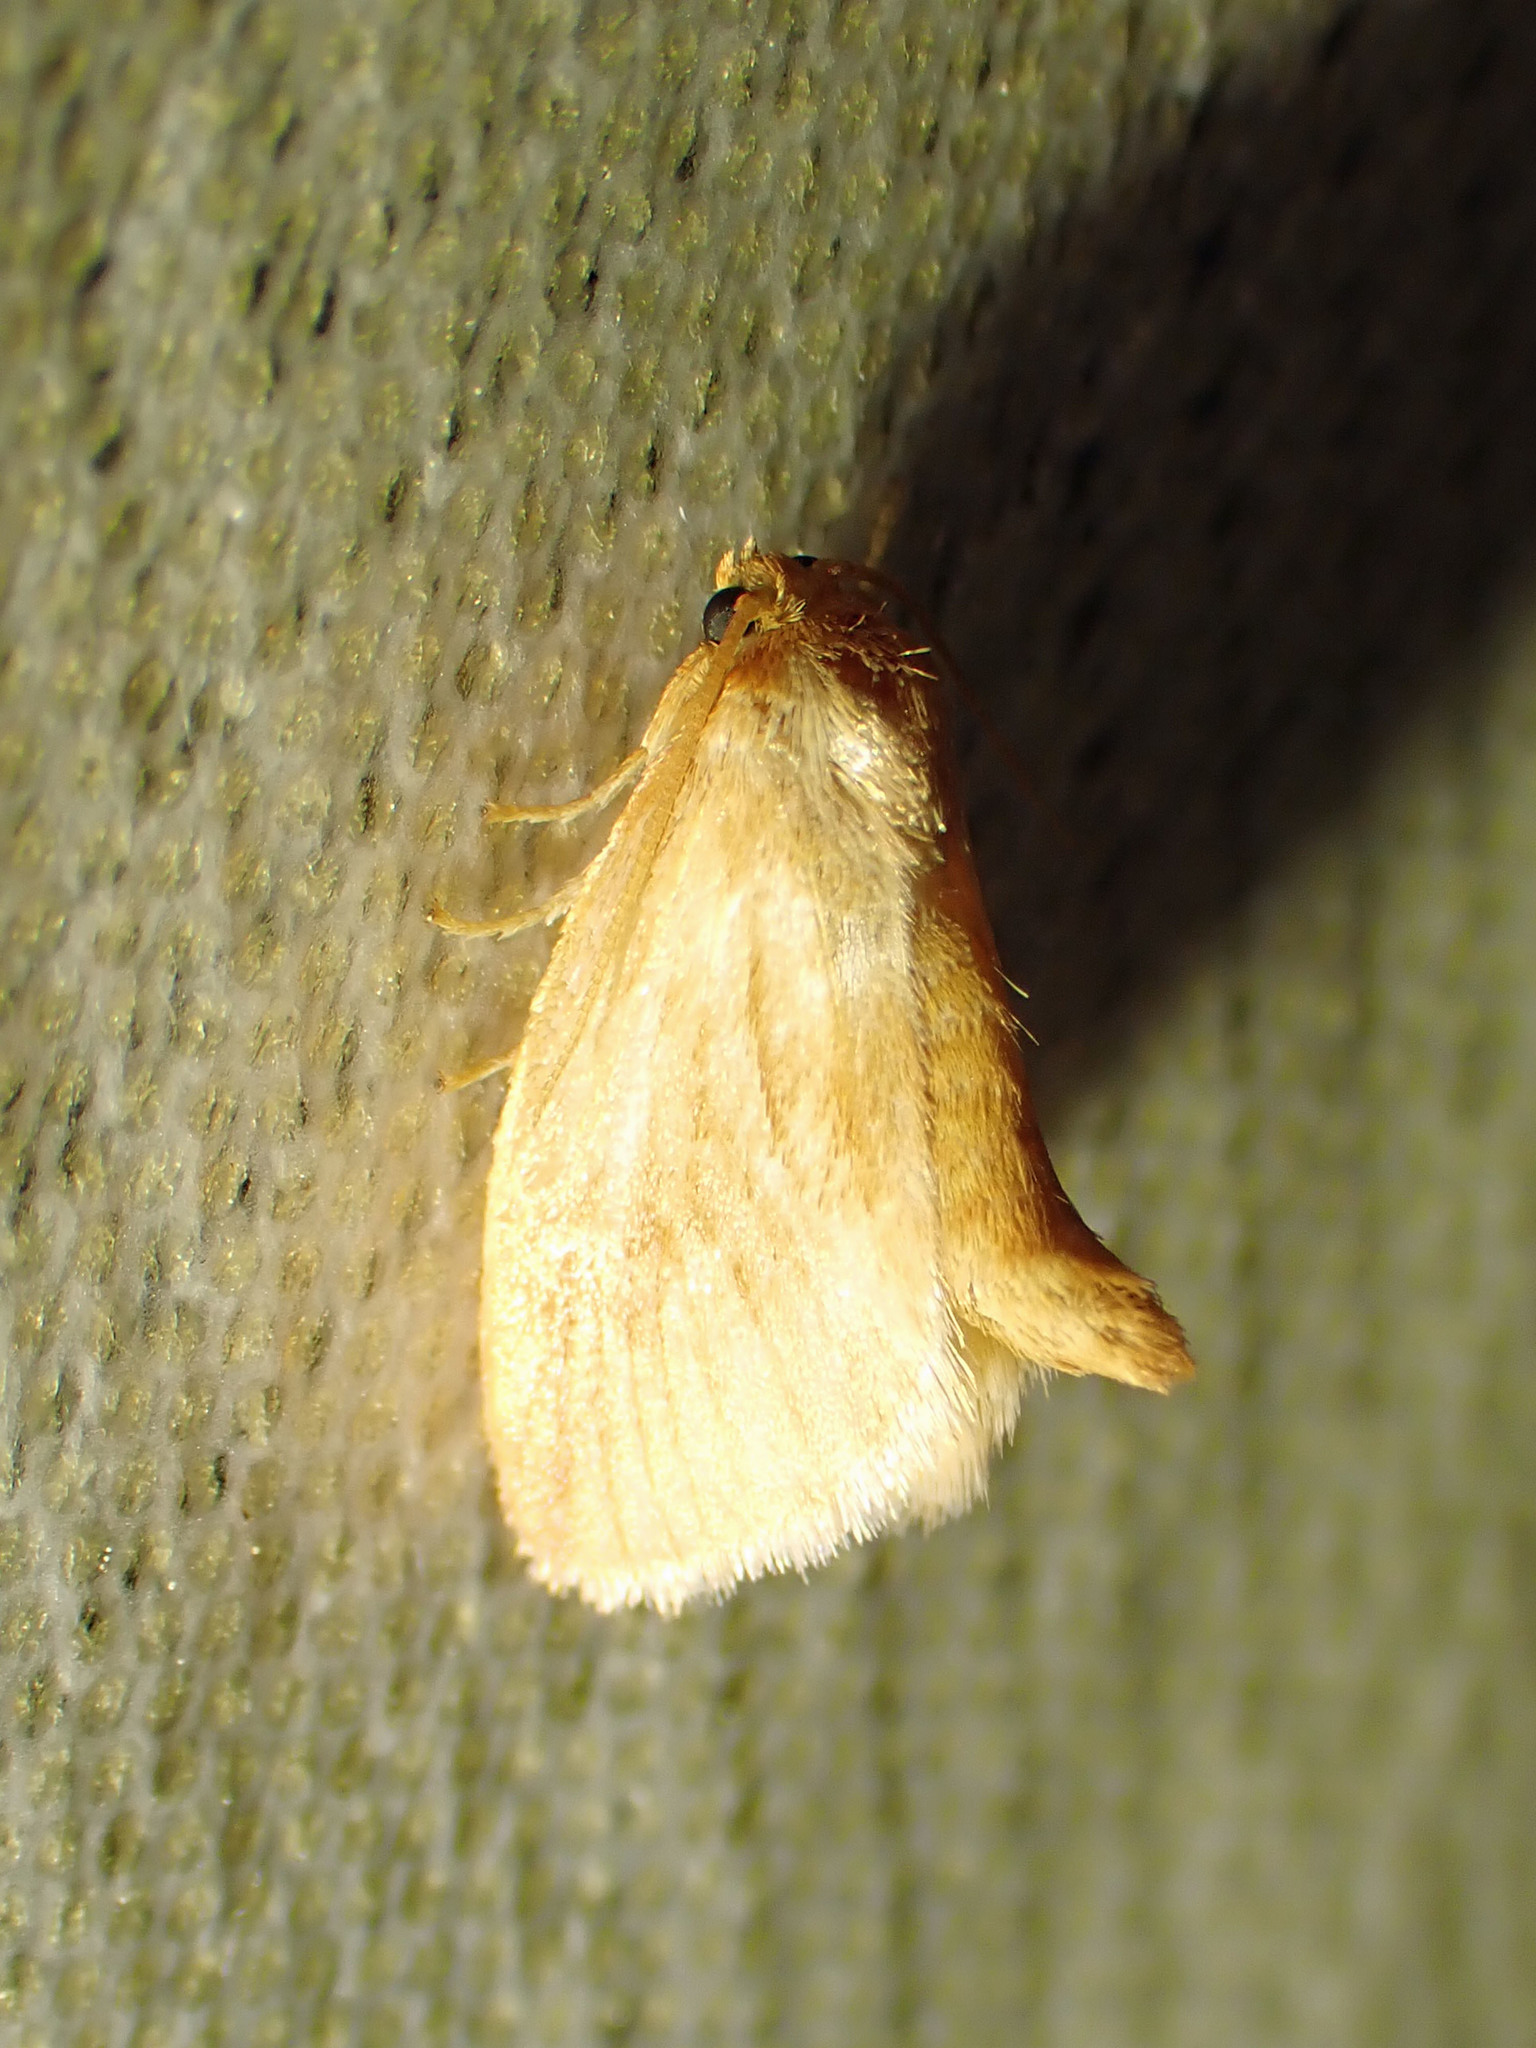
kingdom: Animalia
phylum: Arthropoda
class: Insecta
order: Lepidoptera
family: Limacodidae
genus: Tortricidia
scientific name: Tortricidia testacea
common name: Early button slug moth
